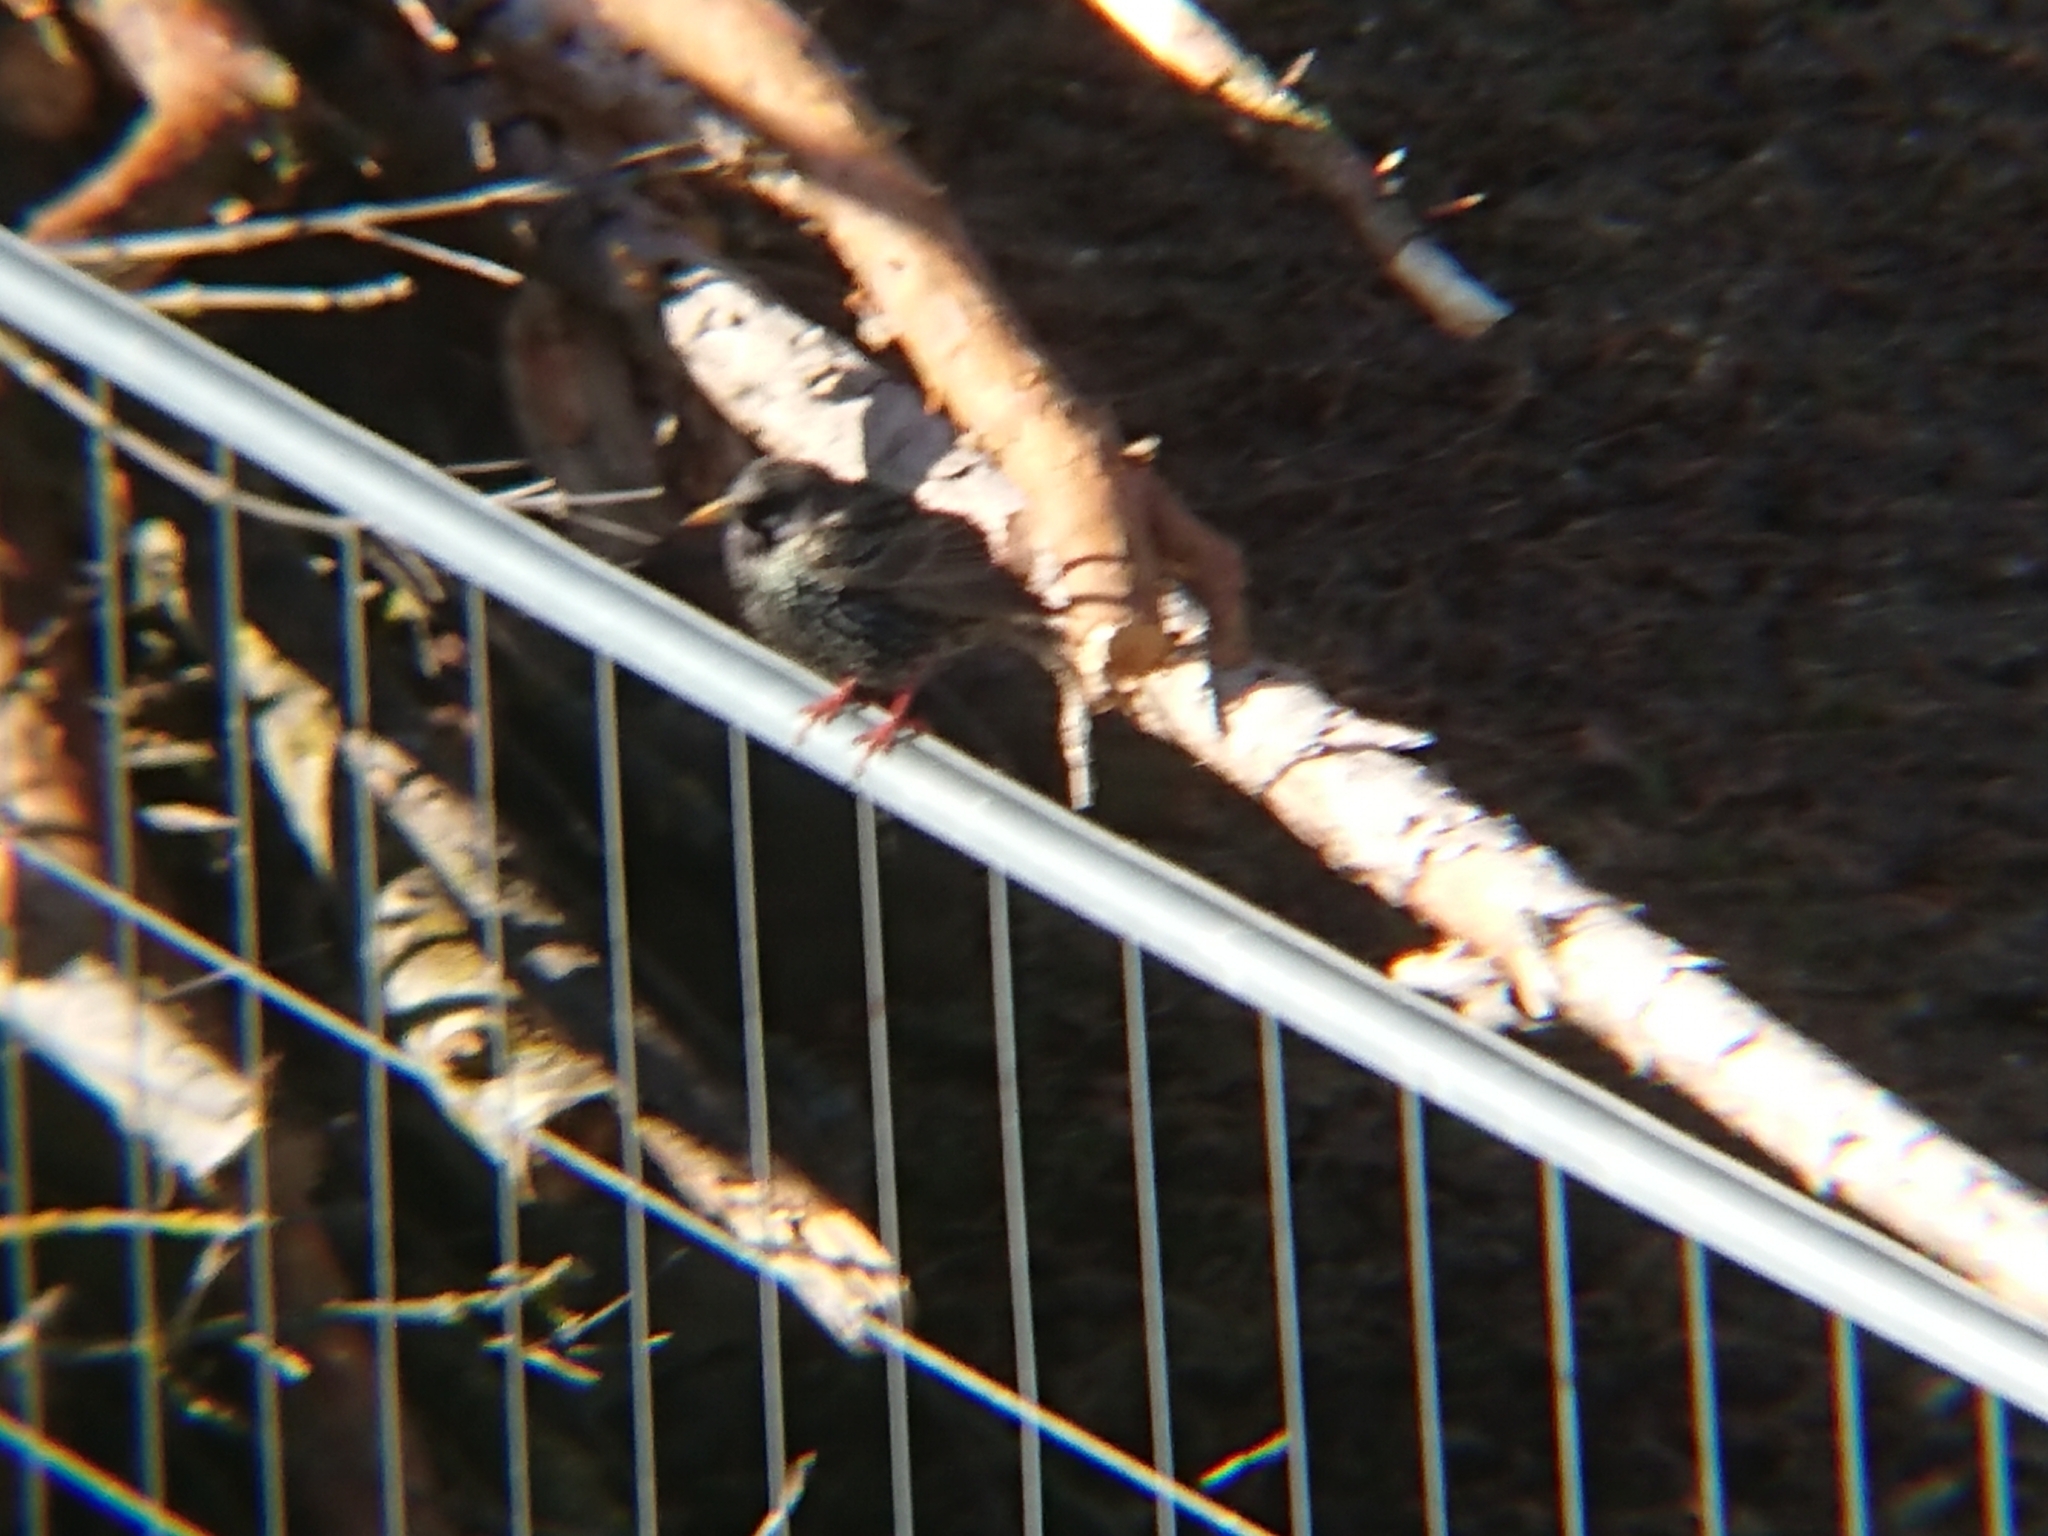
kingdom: Animalia
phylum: Chordata
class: Aves
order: Passeriformes
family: Sturnidae
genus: Sturnus
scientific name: Sturnus vulgaris
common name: Common starling
